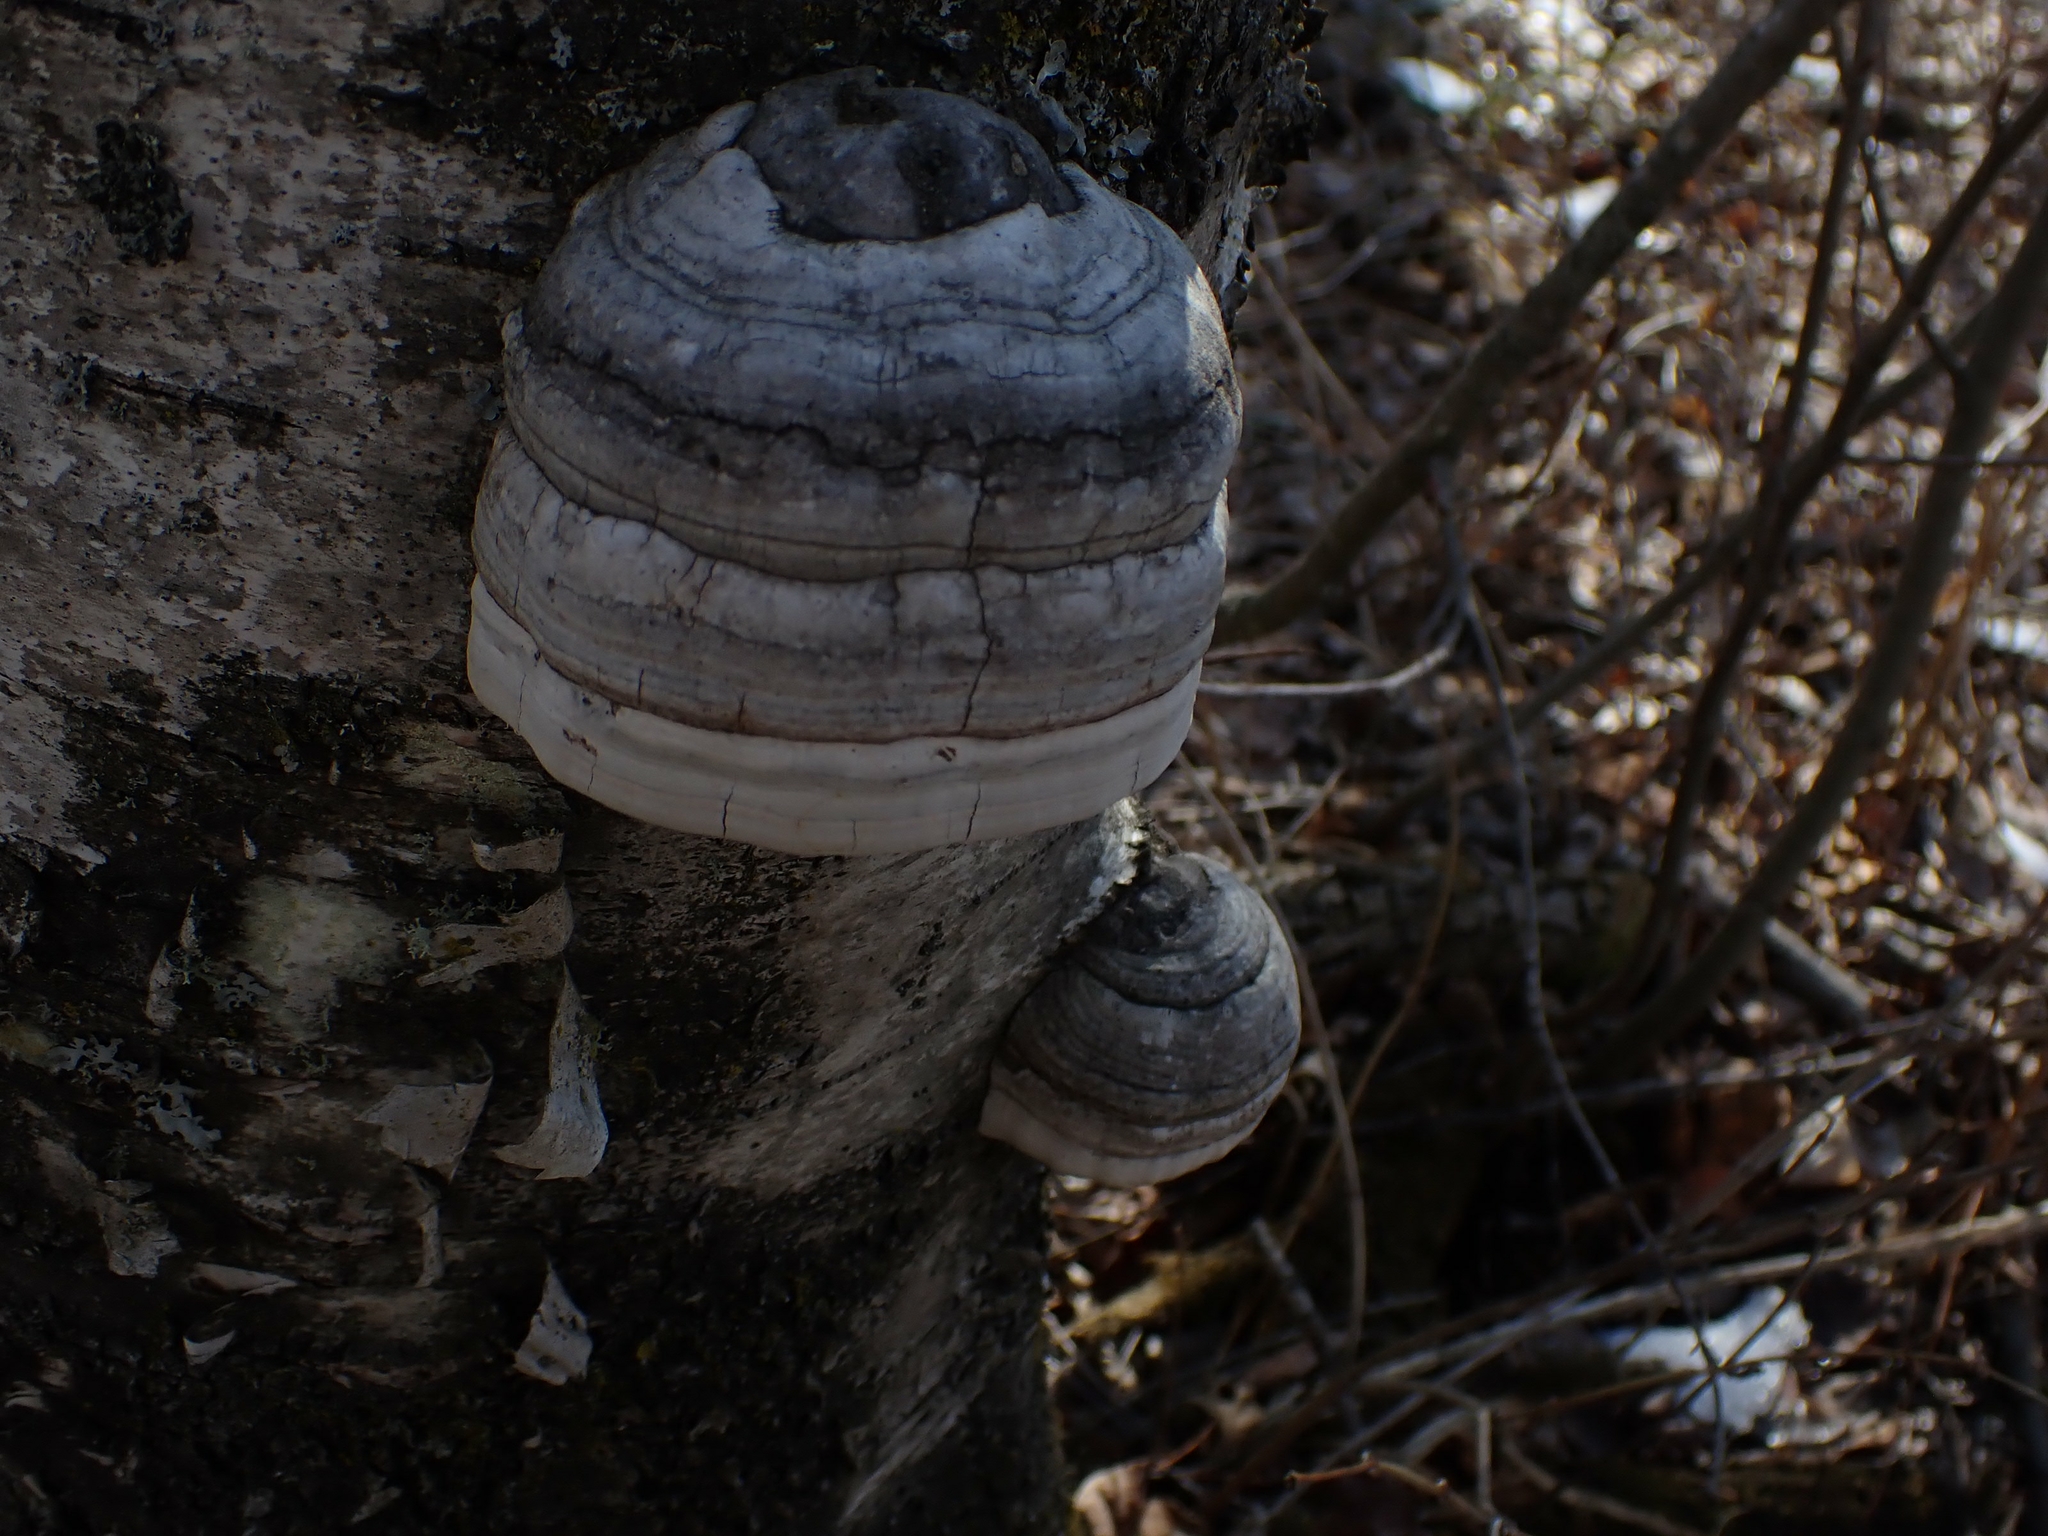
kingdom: Fungi
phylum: Basidiomycota
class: Agaricomycetes
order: Polyporales
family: Polyporaceae
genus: Fomes
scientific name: Fomes fomentarius
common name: Hoof fungus
